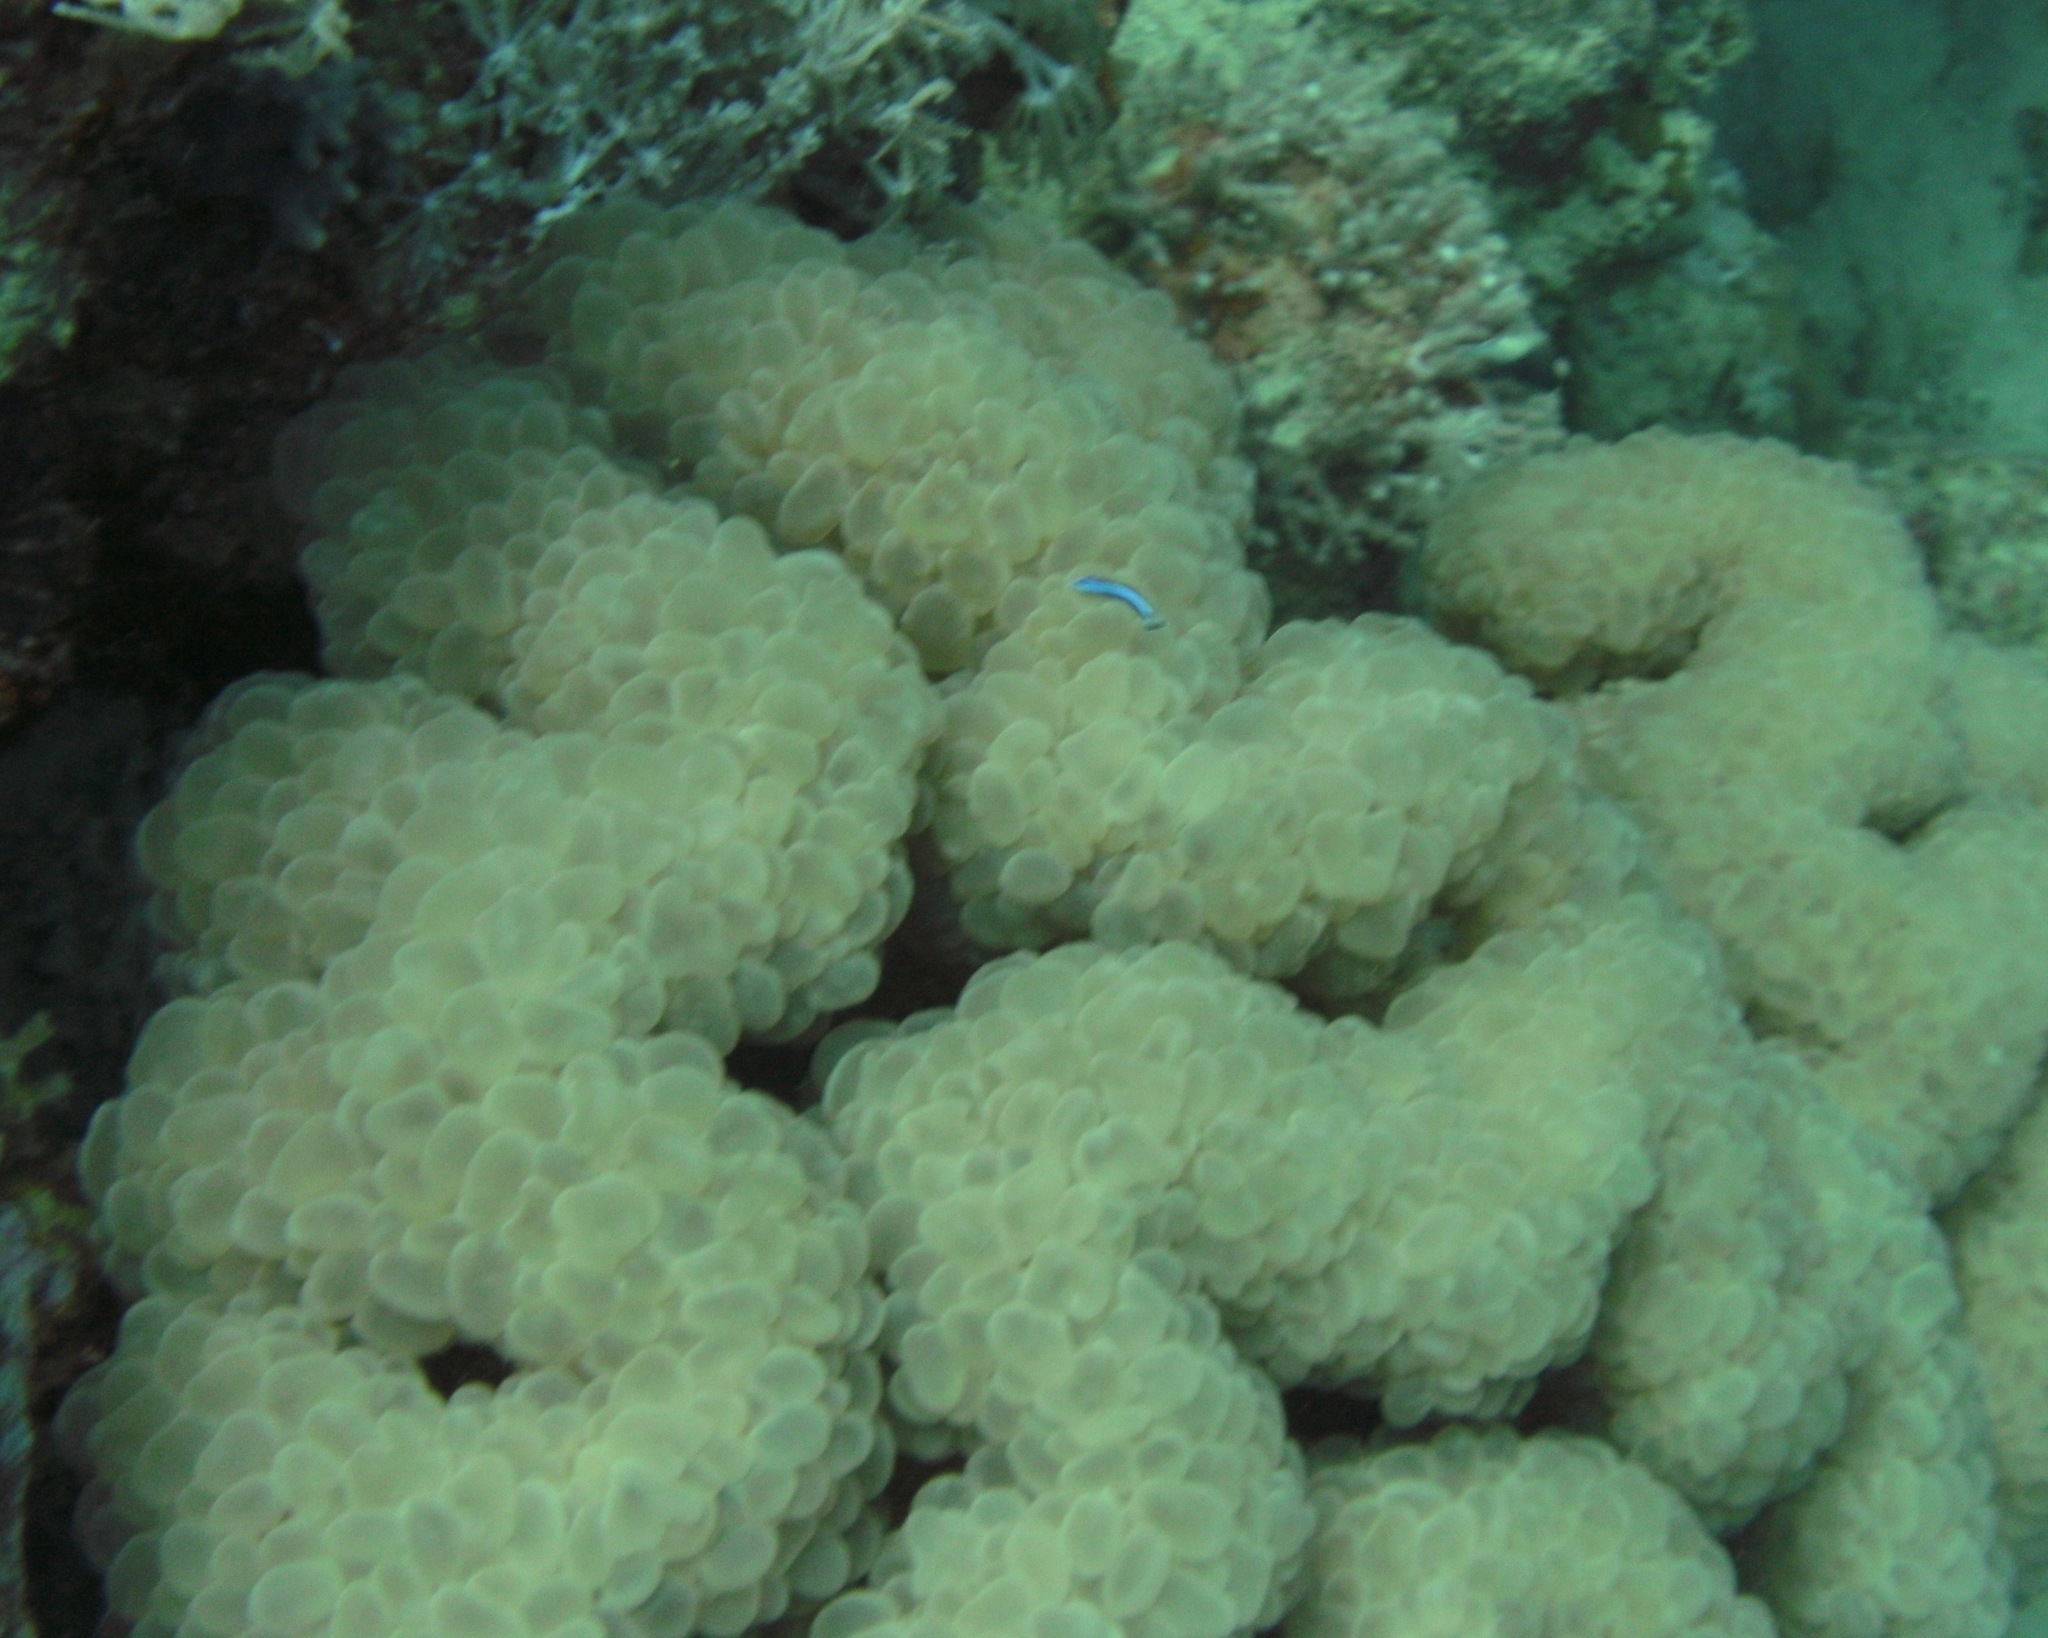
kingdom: Animalia
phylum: Cnidaria
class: Anthozoa
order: Scleractinia
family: Plerogyridae
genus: Plerogyra
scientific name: Plerogyra sinuosa
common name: Bubble coral
